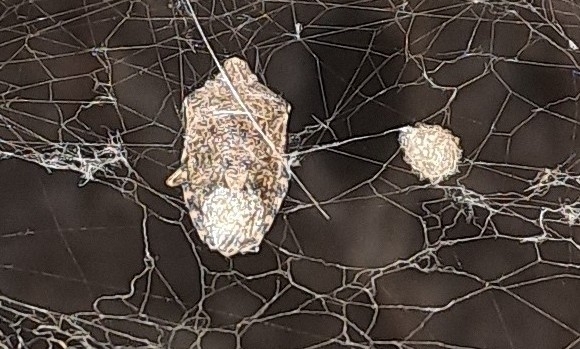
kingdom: Animalia
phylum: Arthropoda
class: Insecta
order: Hemiptera
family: Pentatomidae
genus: Rhaphigaster
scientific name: Rhaphigaster nebulosa
